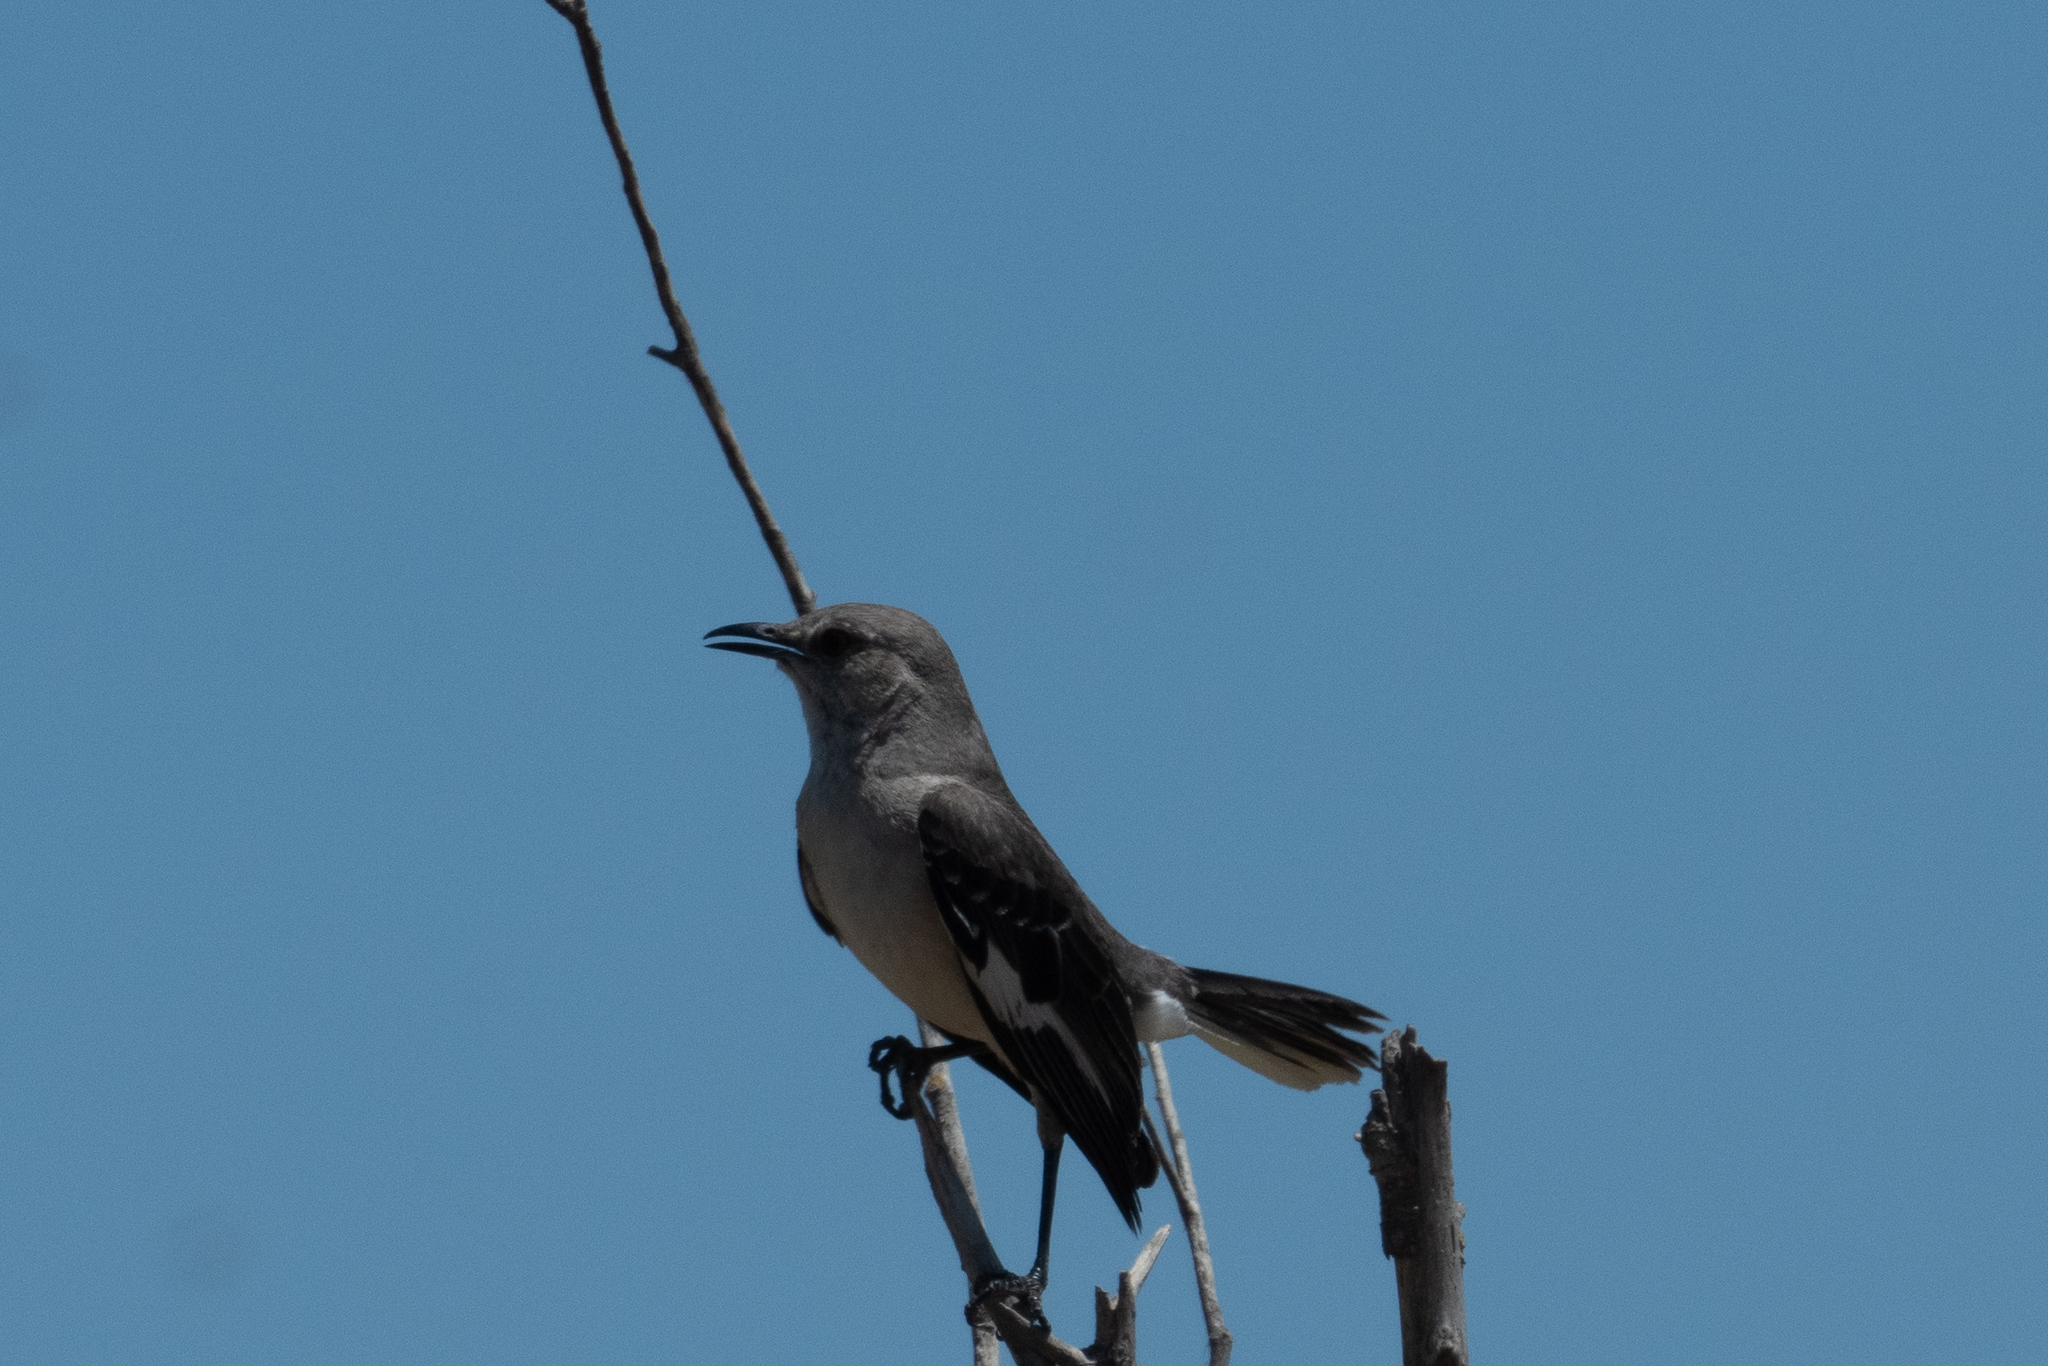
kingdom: Animalia
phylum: Chordata
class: Aves
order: Passeriformes
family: Mimidae
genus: Mimus
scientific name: Mimus polyglottos
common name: Northern mockingbird
